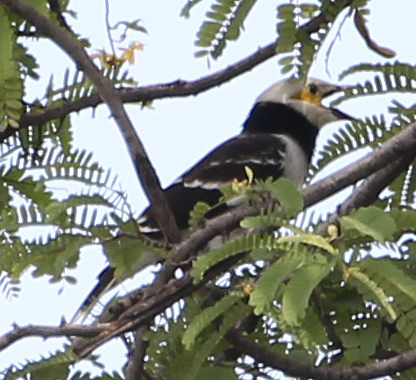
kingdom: Animalia
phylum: Chordata
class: Aves
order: Passeriformes
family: Sturnidae
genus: Gracupica
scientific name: Gracupica nigricollis
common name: Black-collared starling
